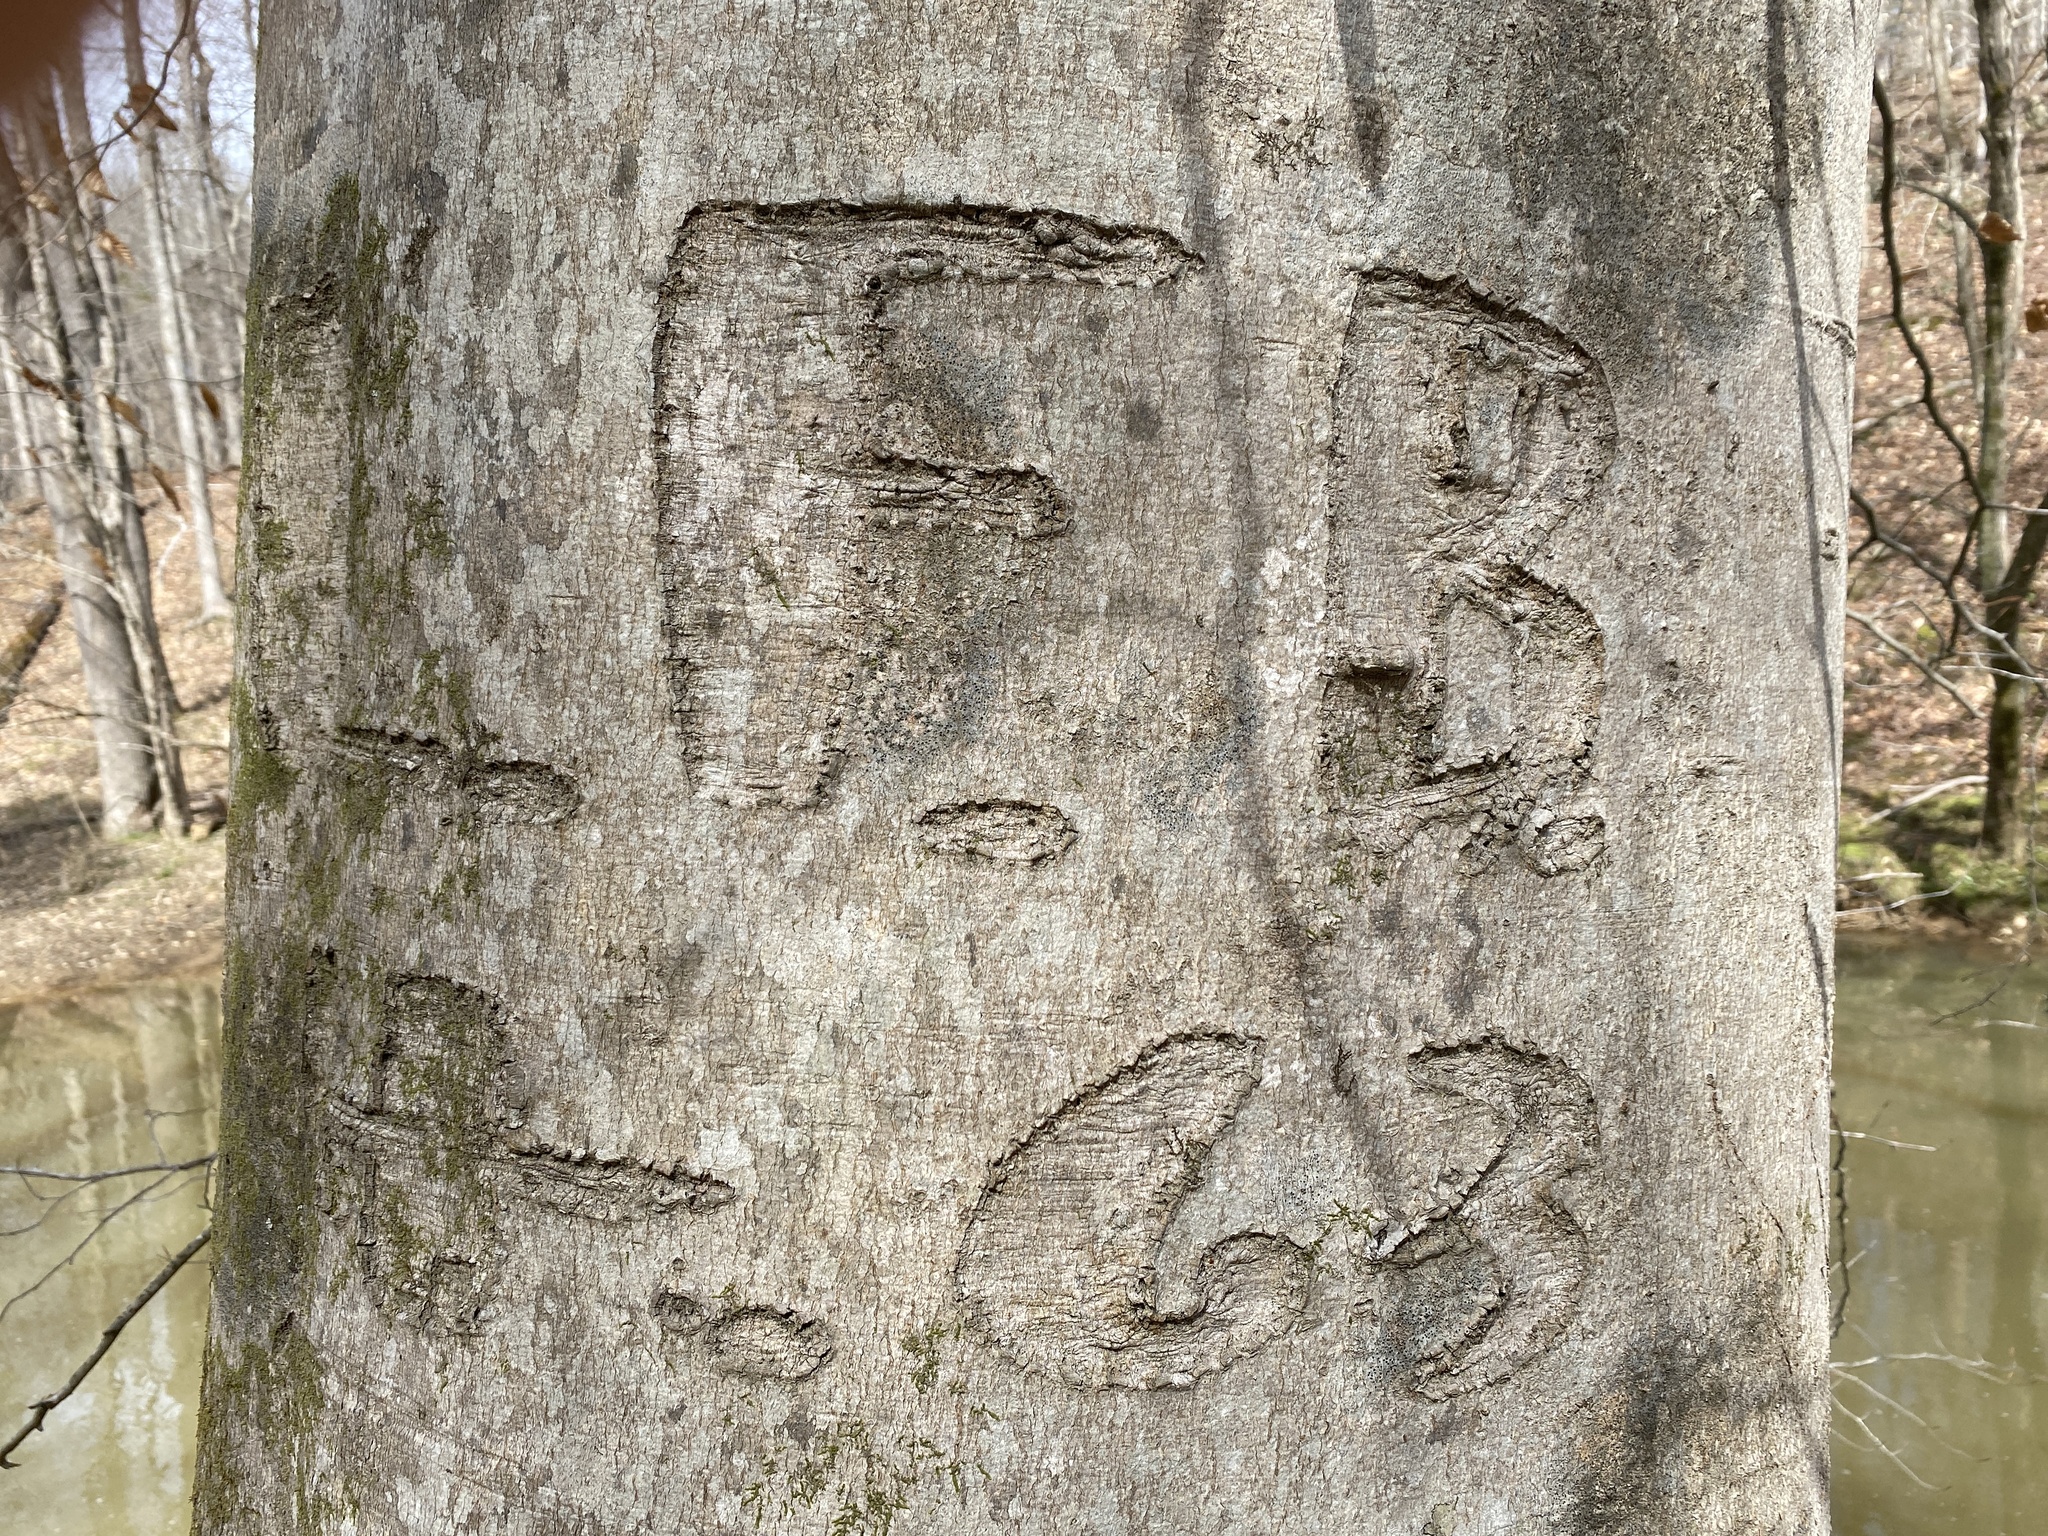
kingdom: Plantae
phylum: Tracheophyta
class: Magnoliopsida
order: Fagales
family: Fagaceae
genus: Fagus
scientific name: Fagus grandifolia
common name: American beech
